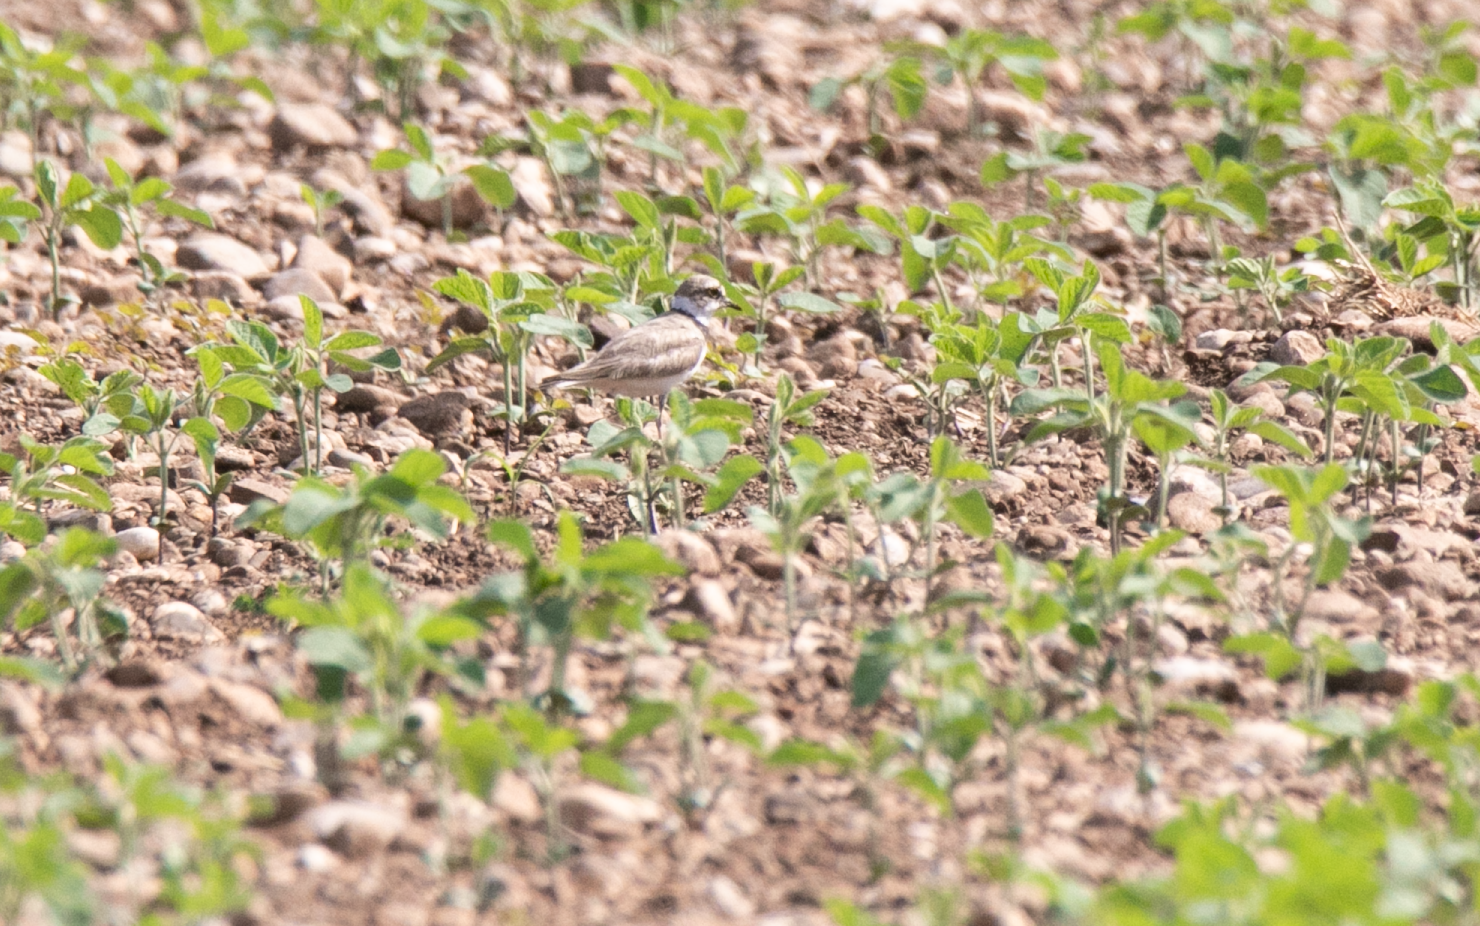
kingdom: Animalia
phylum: Chordata
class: Aves
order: Charadriiformes
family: Charadriidae
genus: Charadrius
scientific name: Charadrius dubius
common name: Little ringed plover
